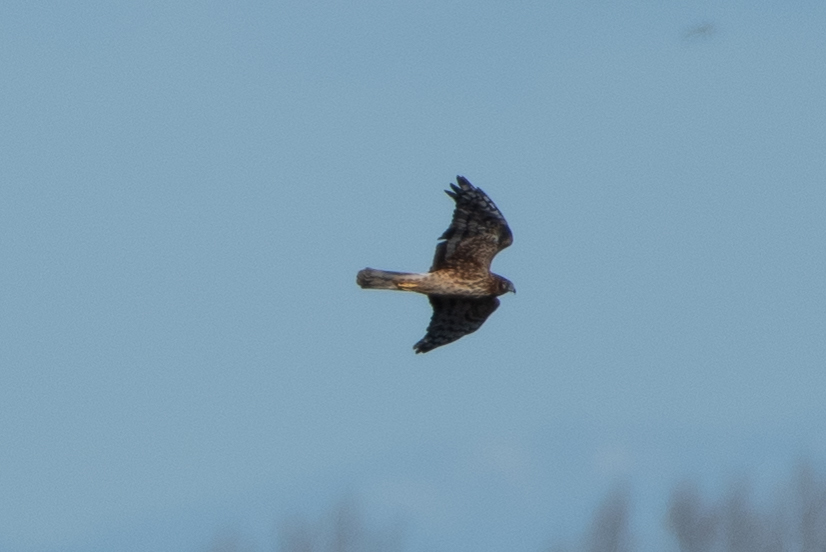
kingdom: Animalia
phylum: Chordata
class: Aves
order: Accipitriformes
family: Accipitridae
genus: Circus
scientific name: Circus cyaneus
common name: Hen harrier
